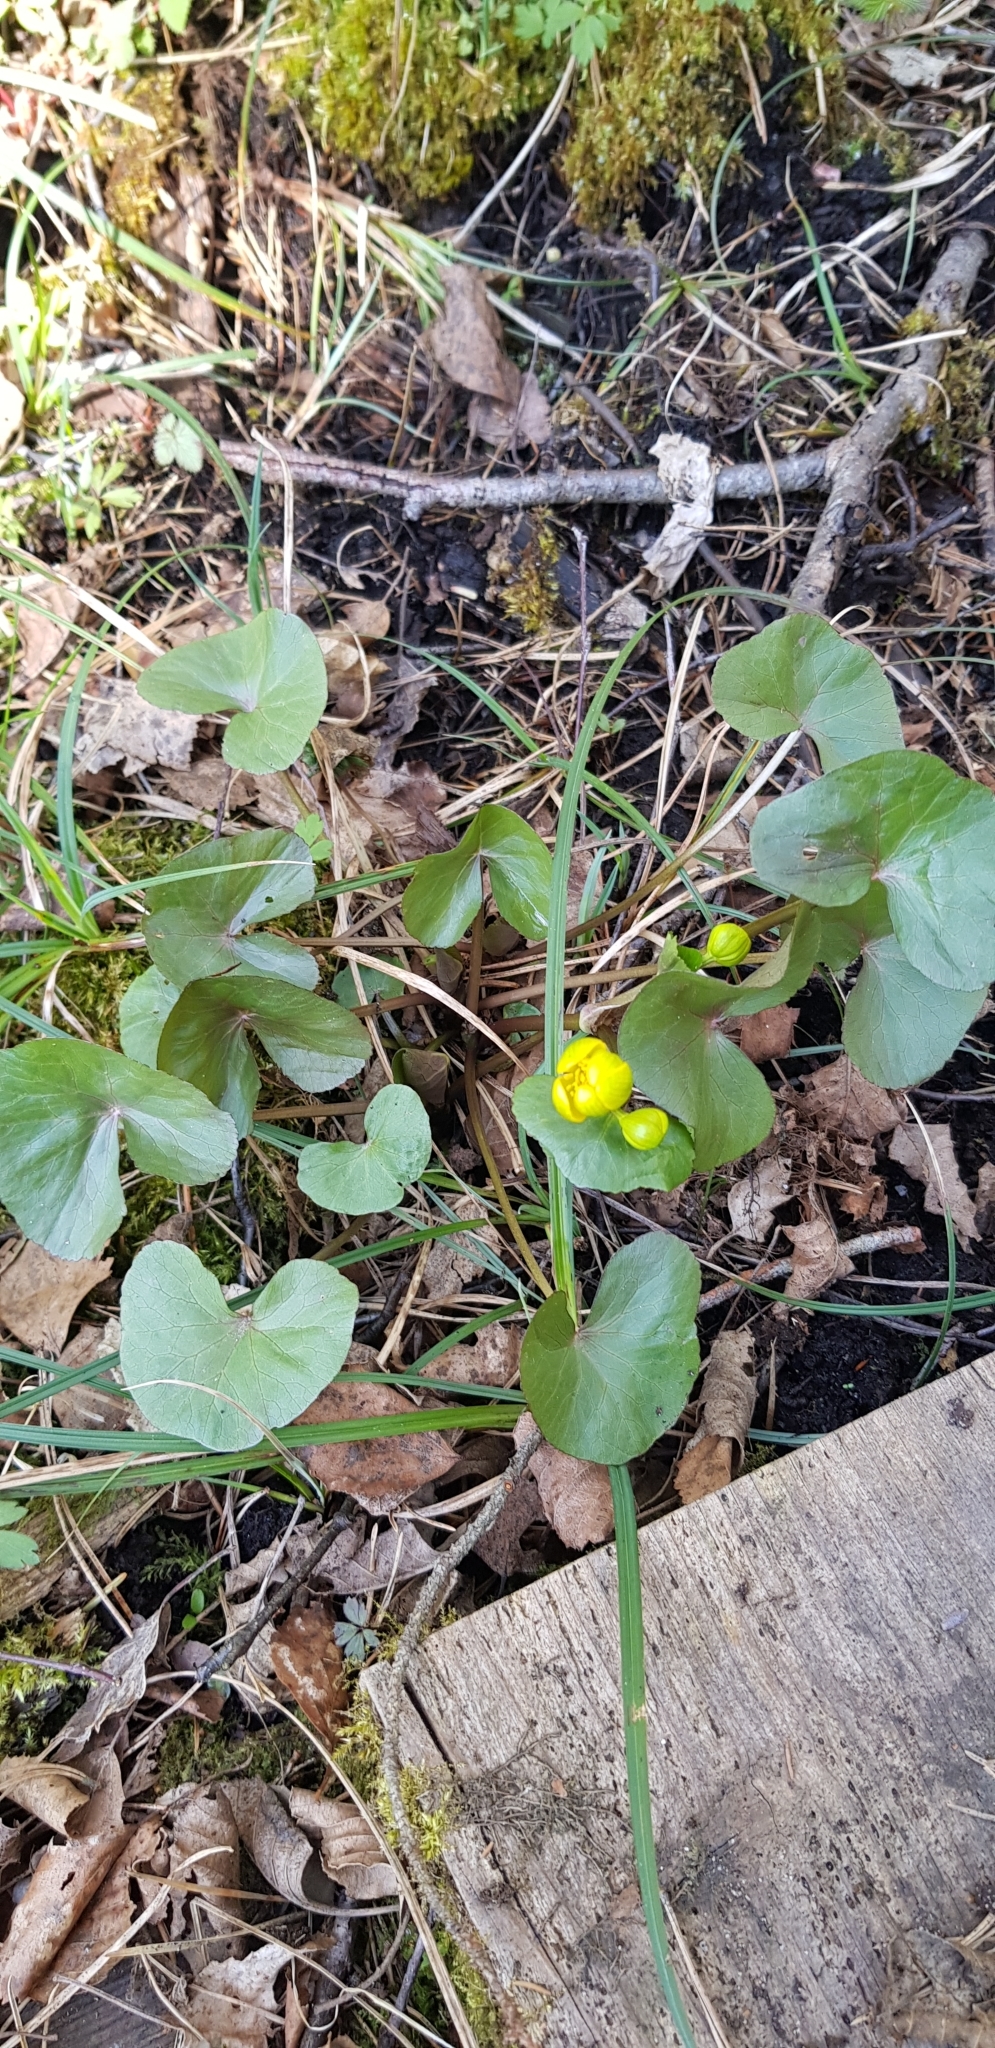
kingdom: Plantae
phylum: Tracheophyta
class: Magnoliopsida
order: Ranunculales
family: Ranunculaceae
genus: Caltha
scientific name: Caltha palustris
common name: Marsh marigold
